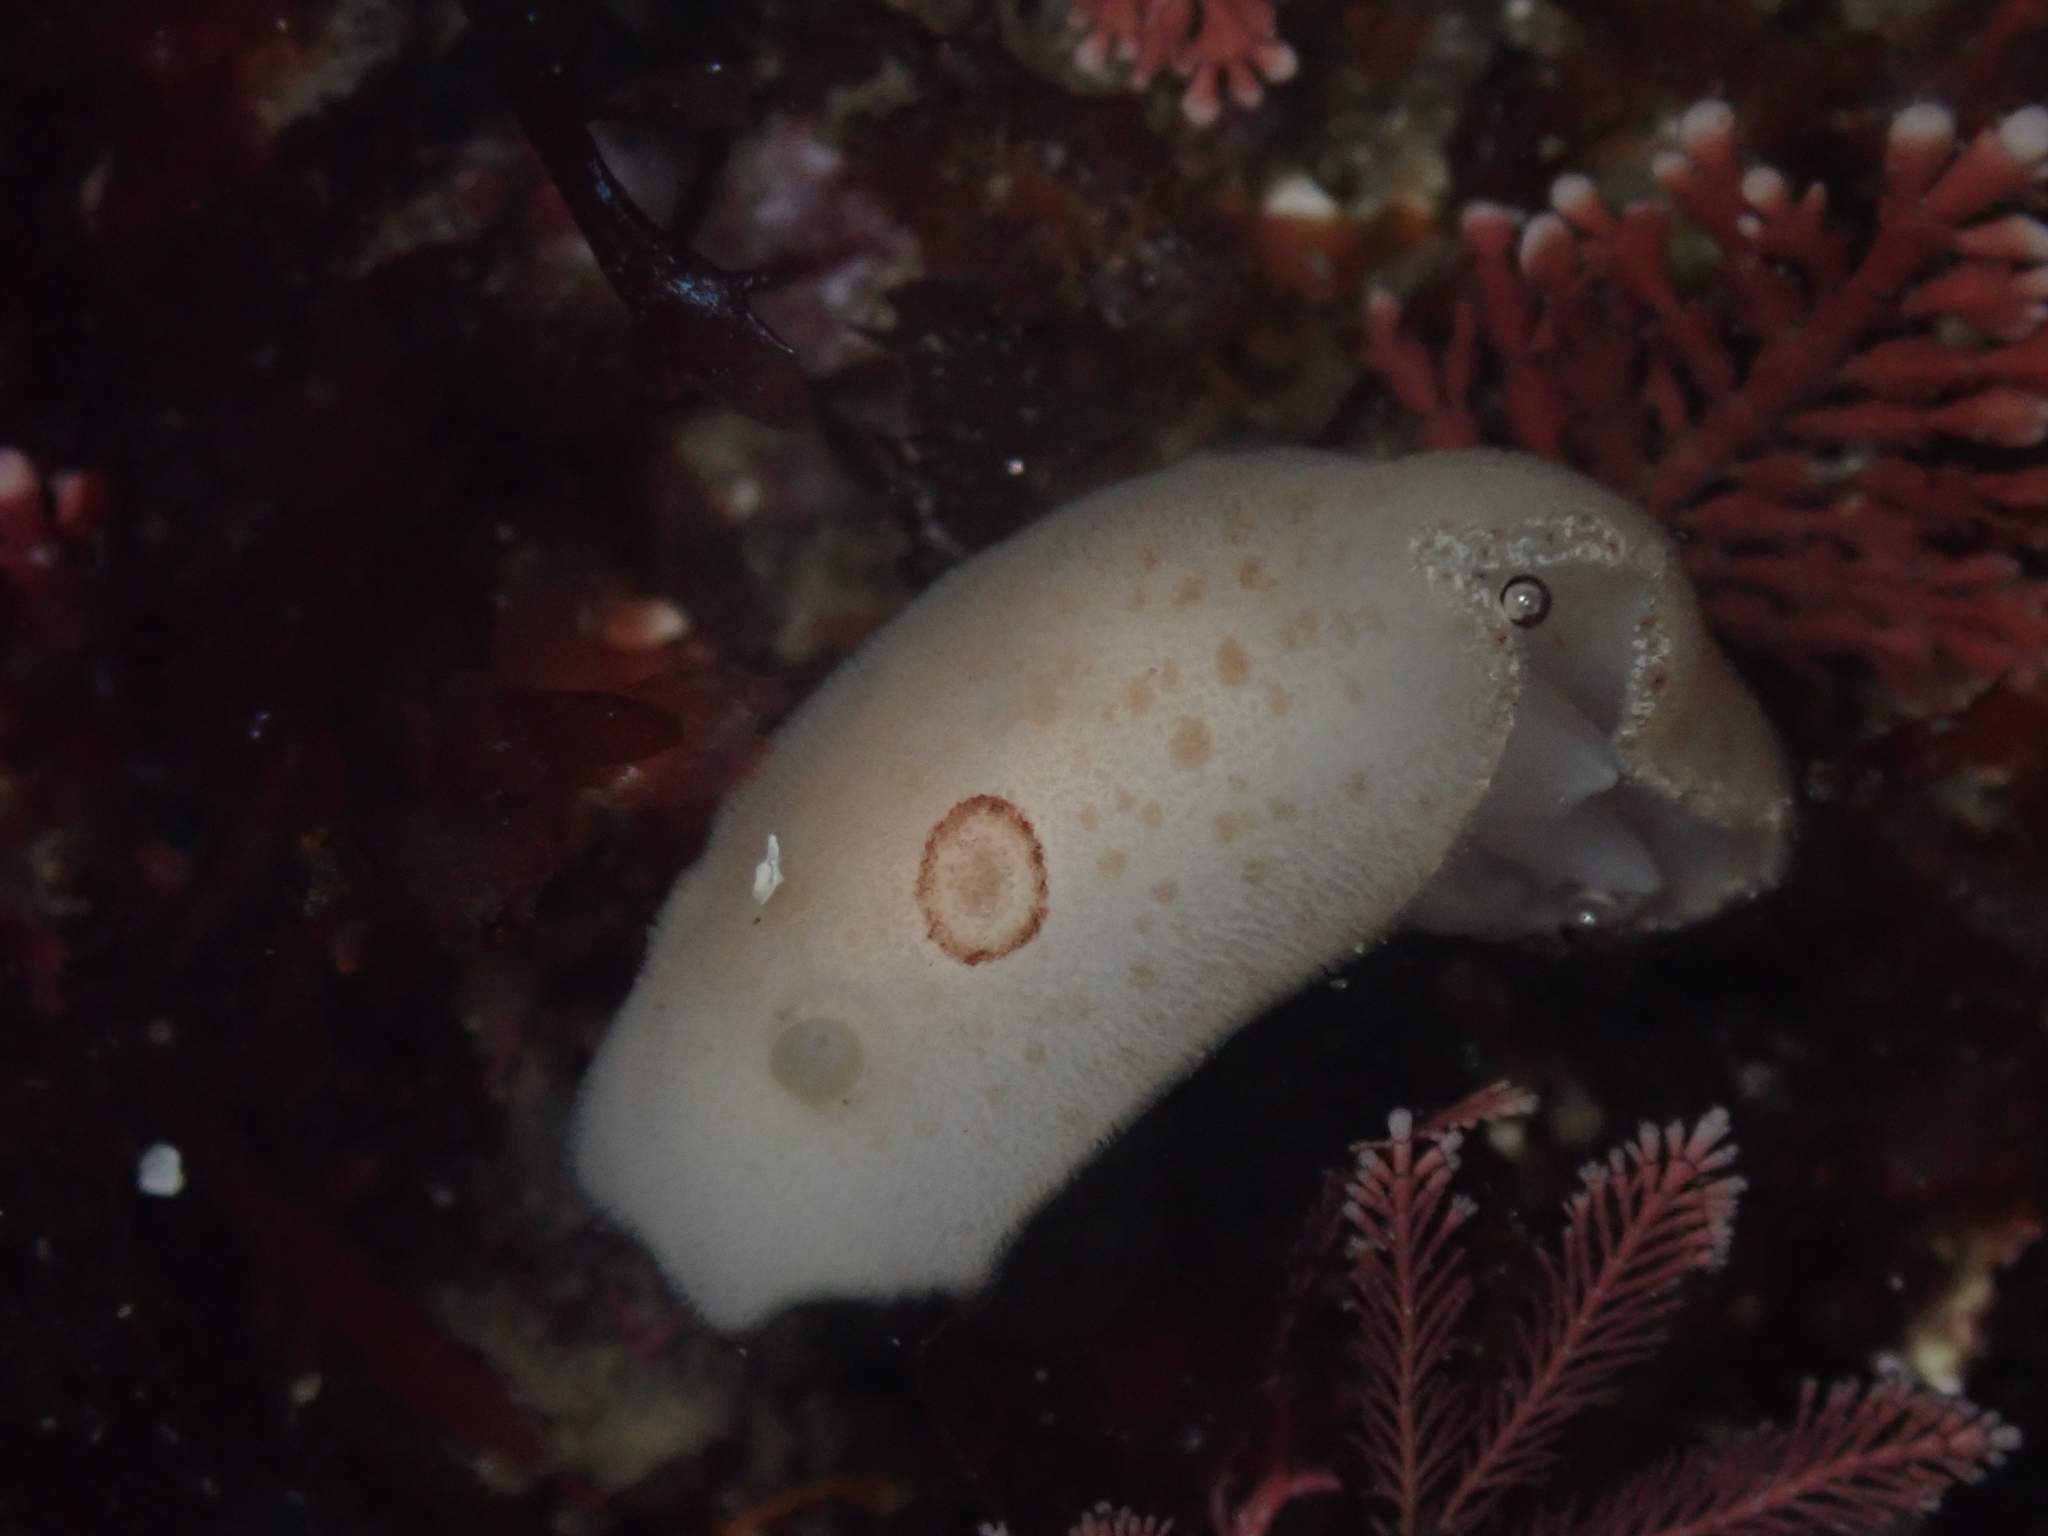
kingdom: Animalia
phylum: Mollusca
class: Gastropoda
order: Nudibranchia
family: Discodorididae
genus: Diaulula
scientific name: Diaulula sandiegensis
